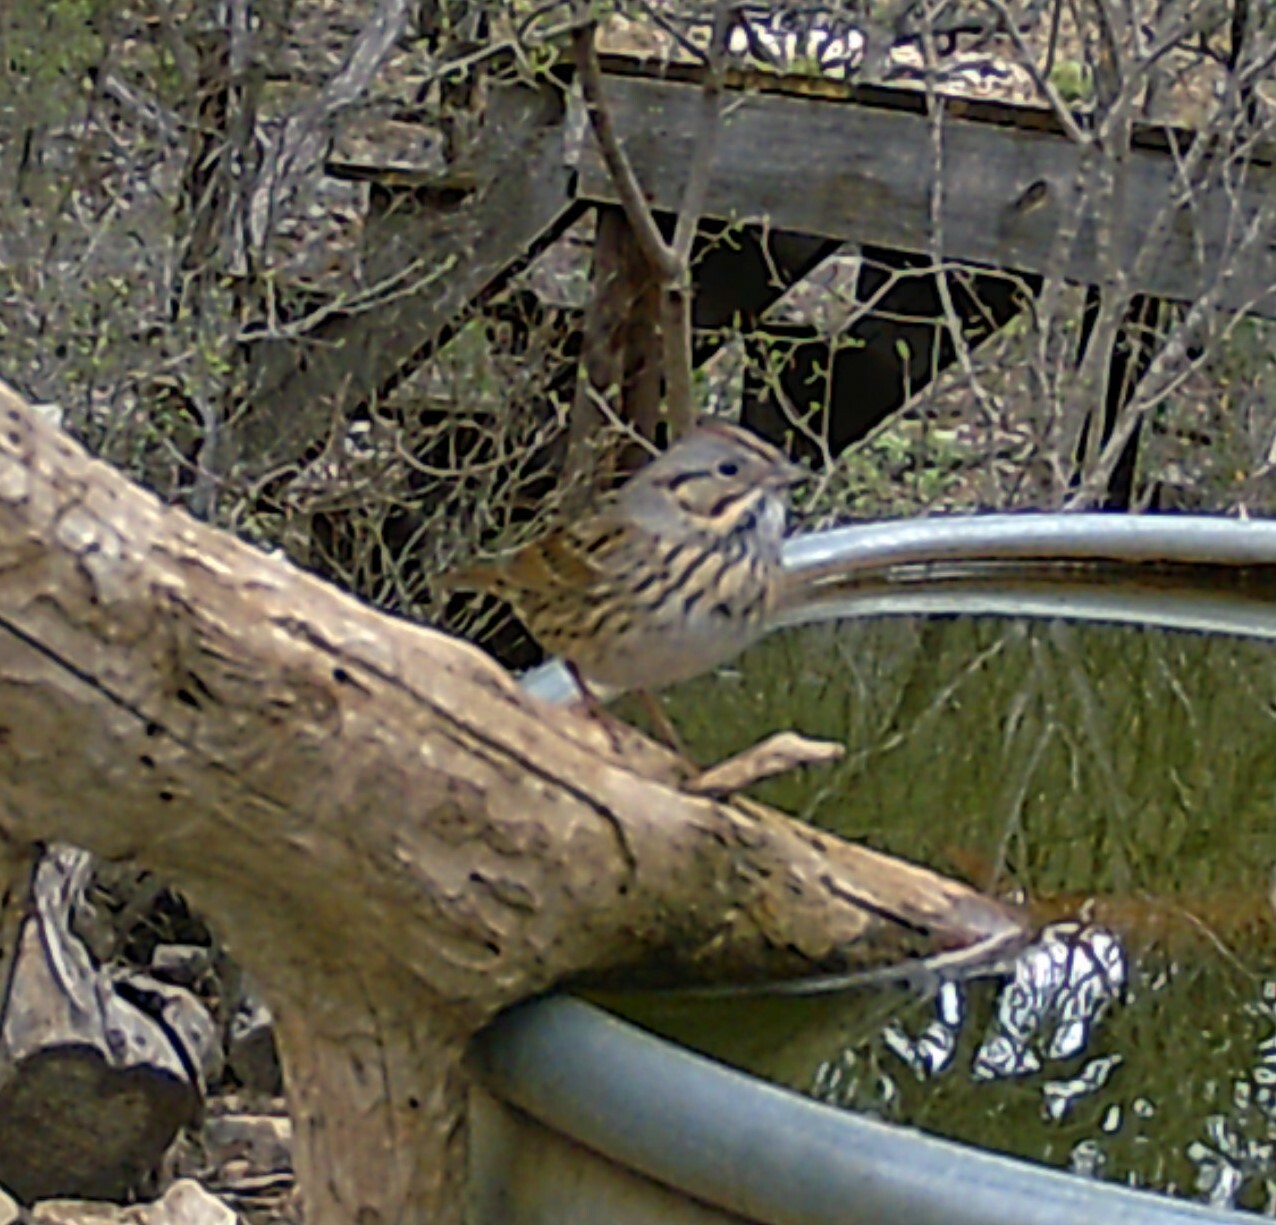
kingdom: Animalia
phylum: Chordata
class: Aves
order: Passeriformes
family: Passerellidae
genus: Melospiza
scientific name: Melospiza lincolnii
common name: Lincoln's sparrow
